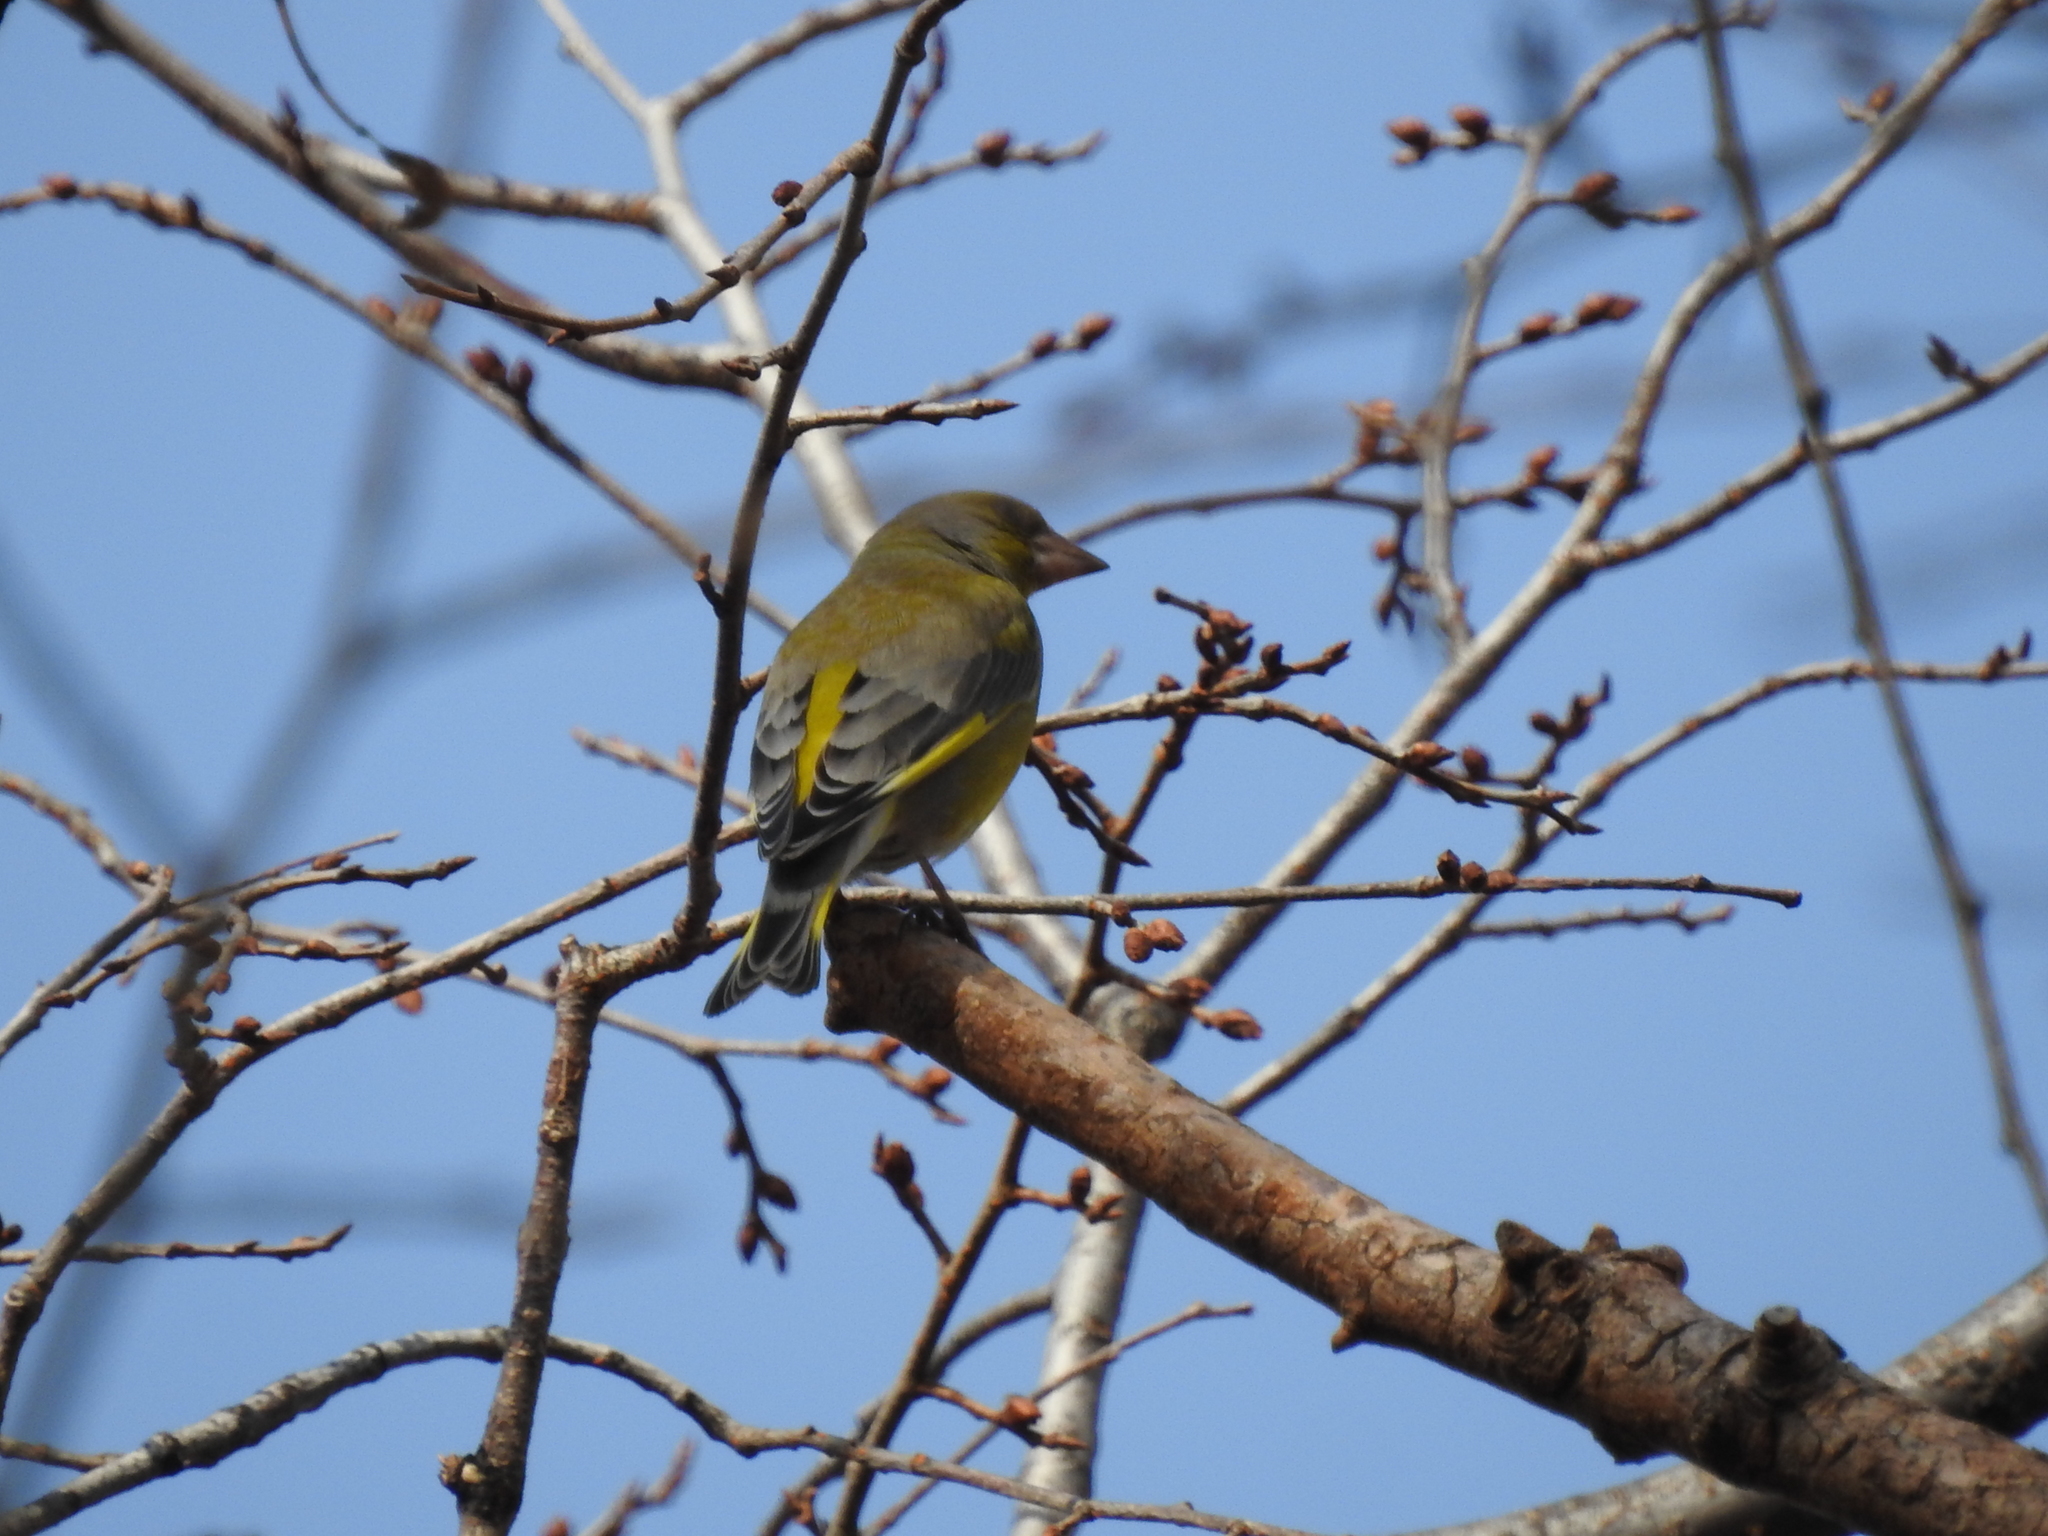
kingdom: Plantae
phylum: Tracheophyta
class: Liliopsida
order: Poales
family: Poaceae
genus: Chloris
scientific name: Chloris chloris
